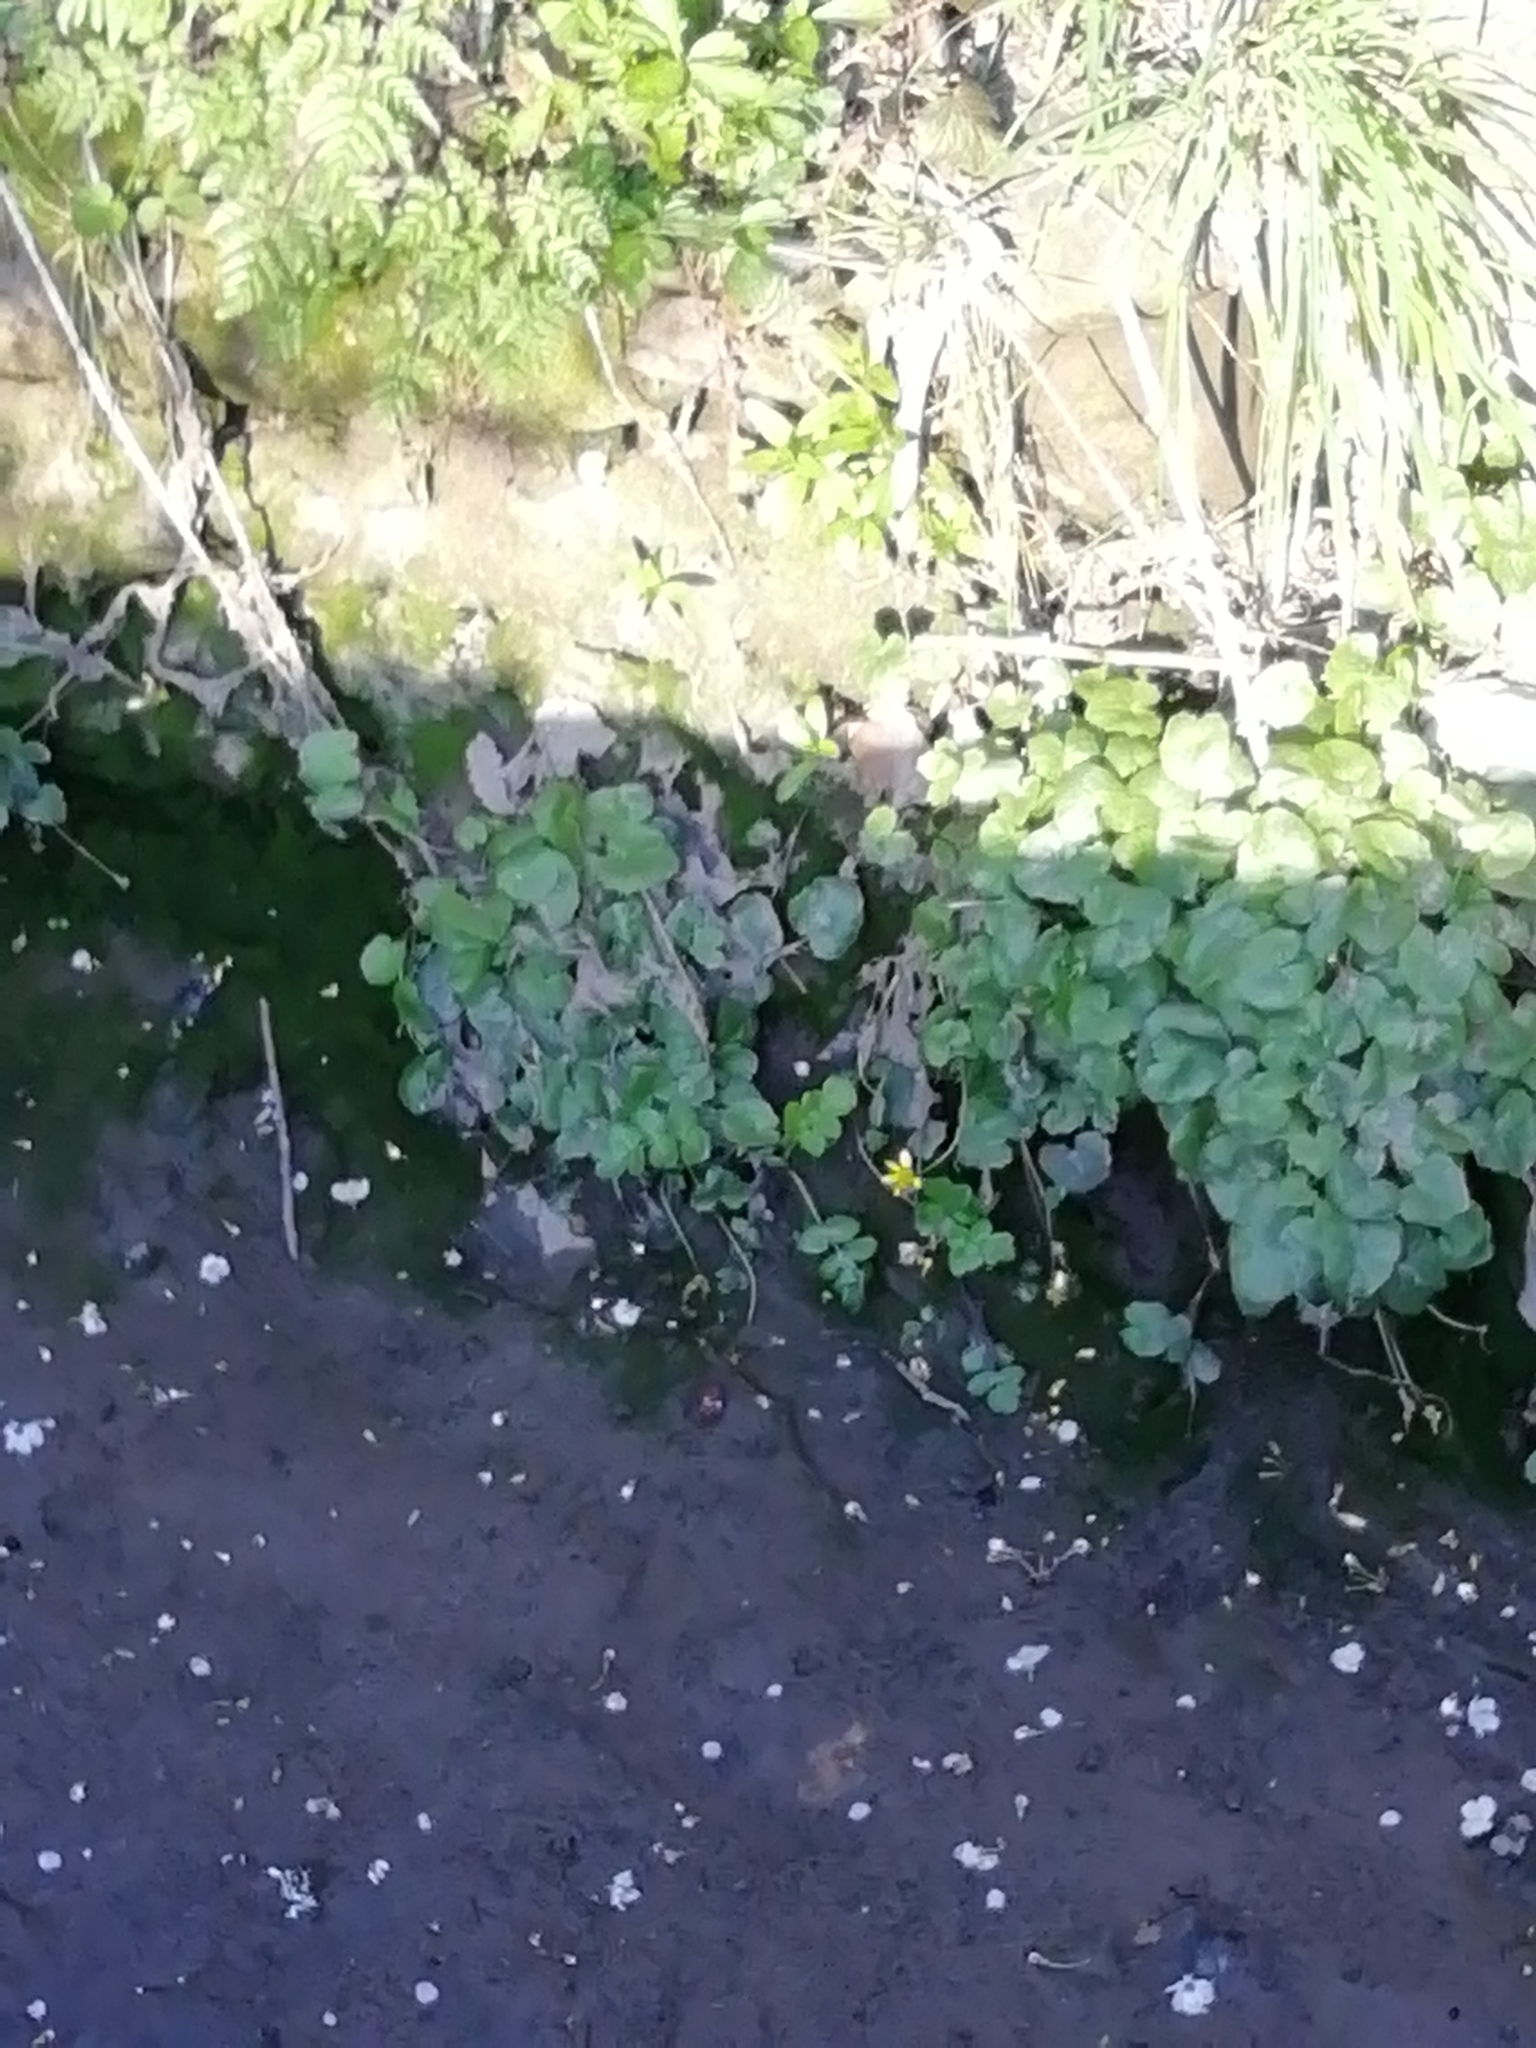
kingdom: Plantae
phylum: Tracheophyta
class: Magnoliopsida
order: Ranunculales
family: Ranunculaceae
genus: Ficaria
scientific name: Ficaria verna
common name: Lesser celandine
